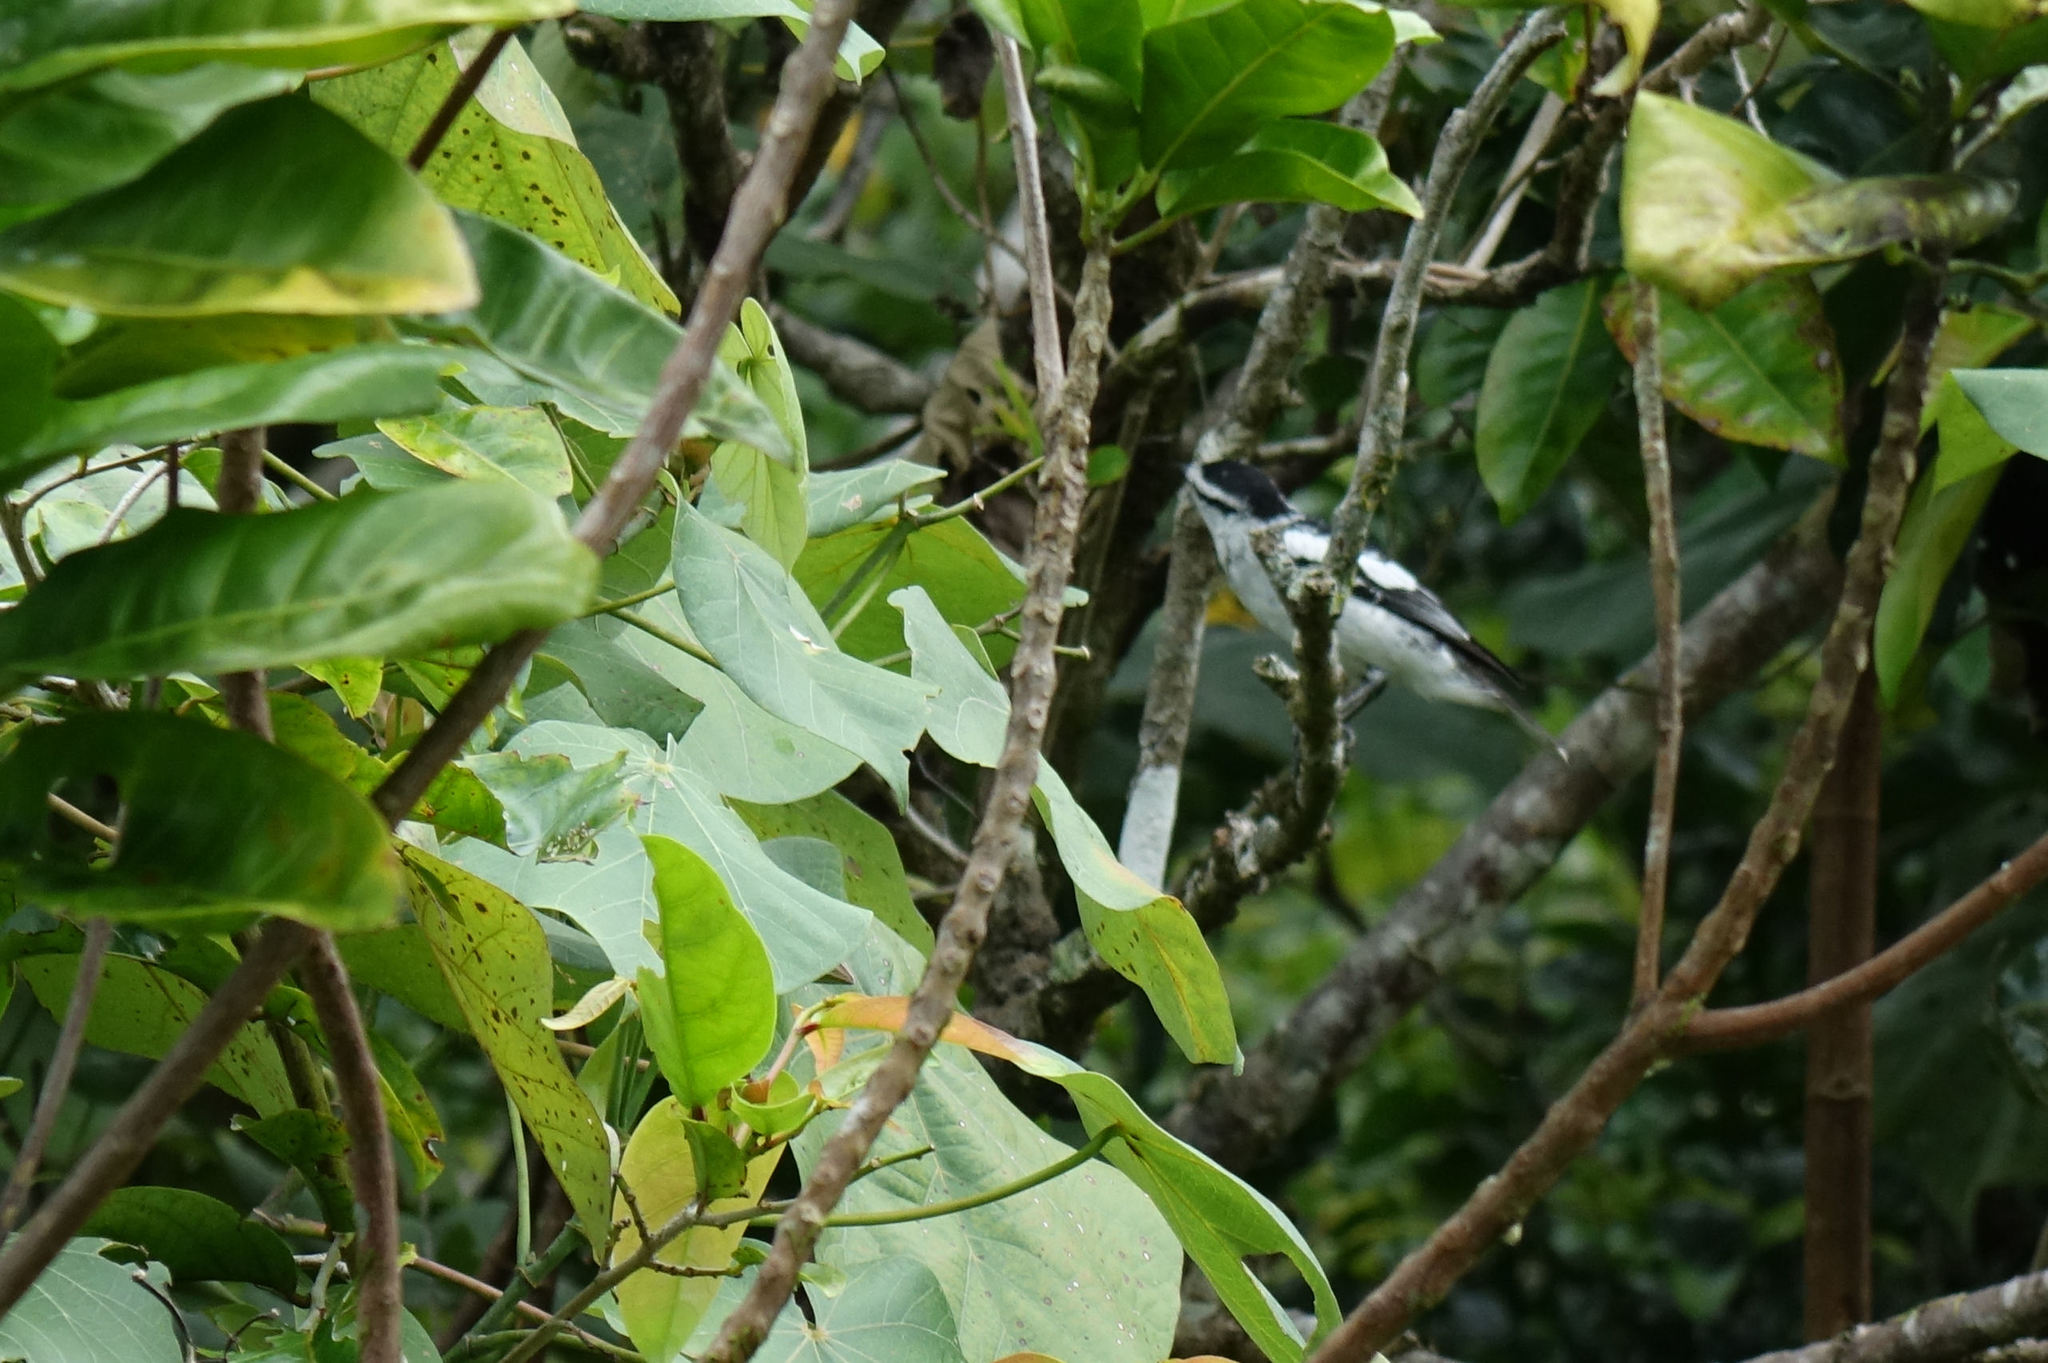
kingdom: Animalia
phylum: Chordata
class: Aves
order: Passeriformes
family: Campephagidae
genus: Lalage
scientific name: Lalage maculosa
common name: Polynesian triller
